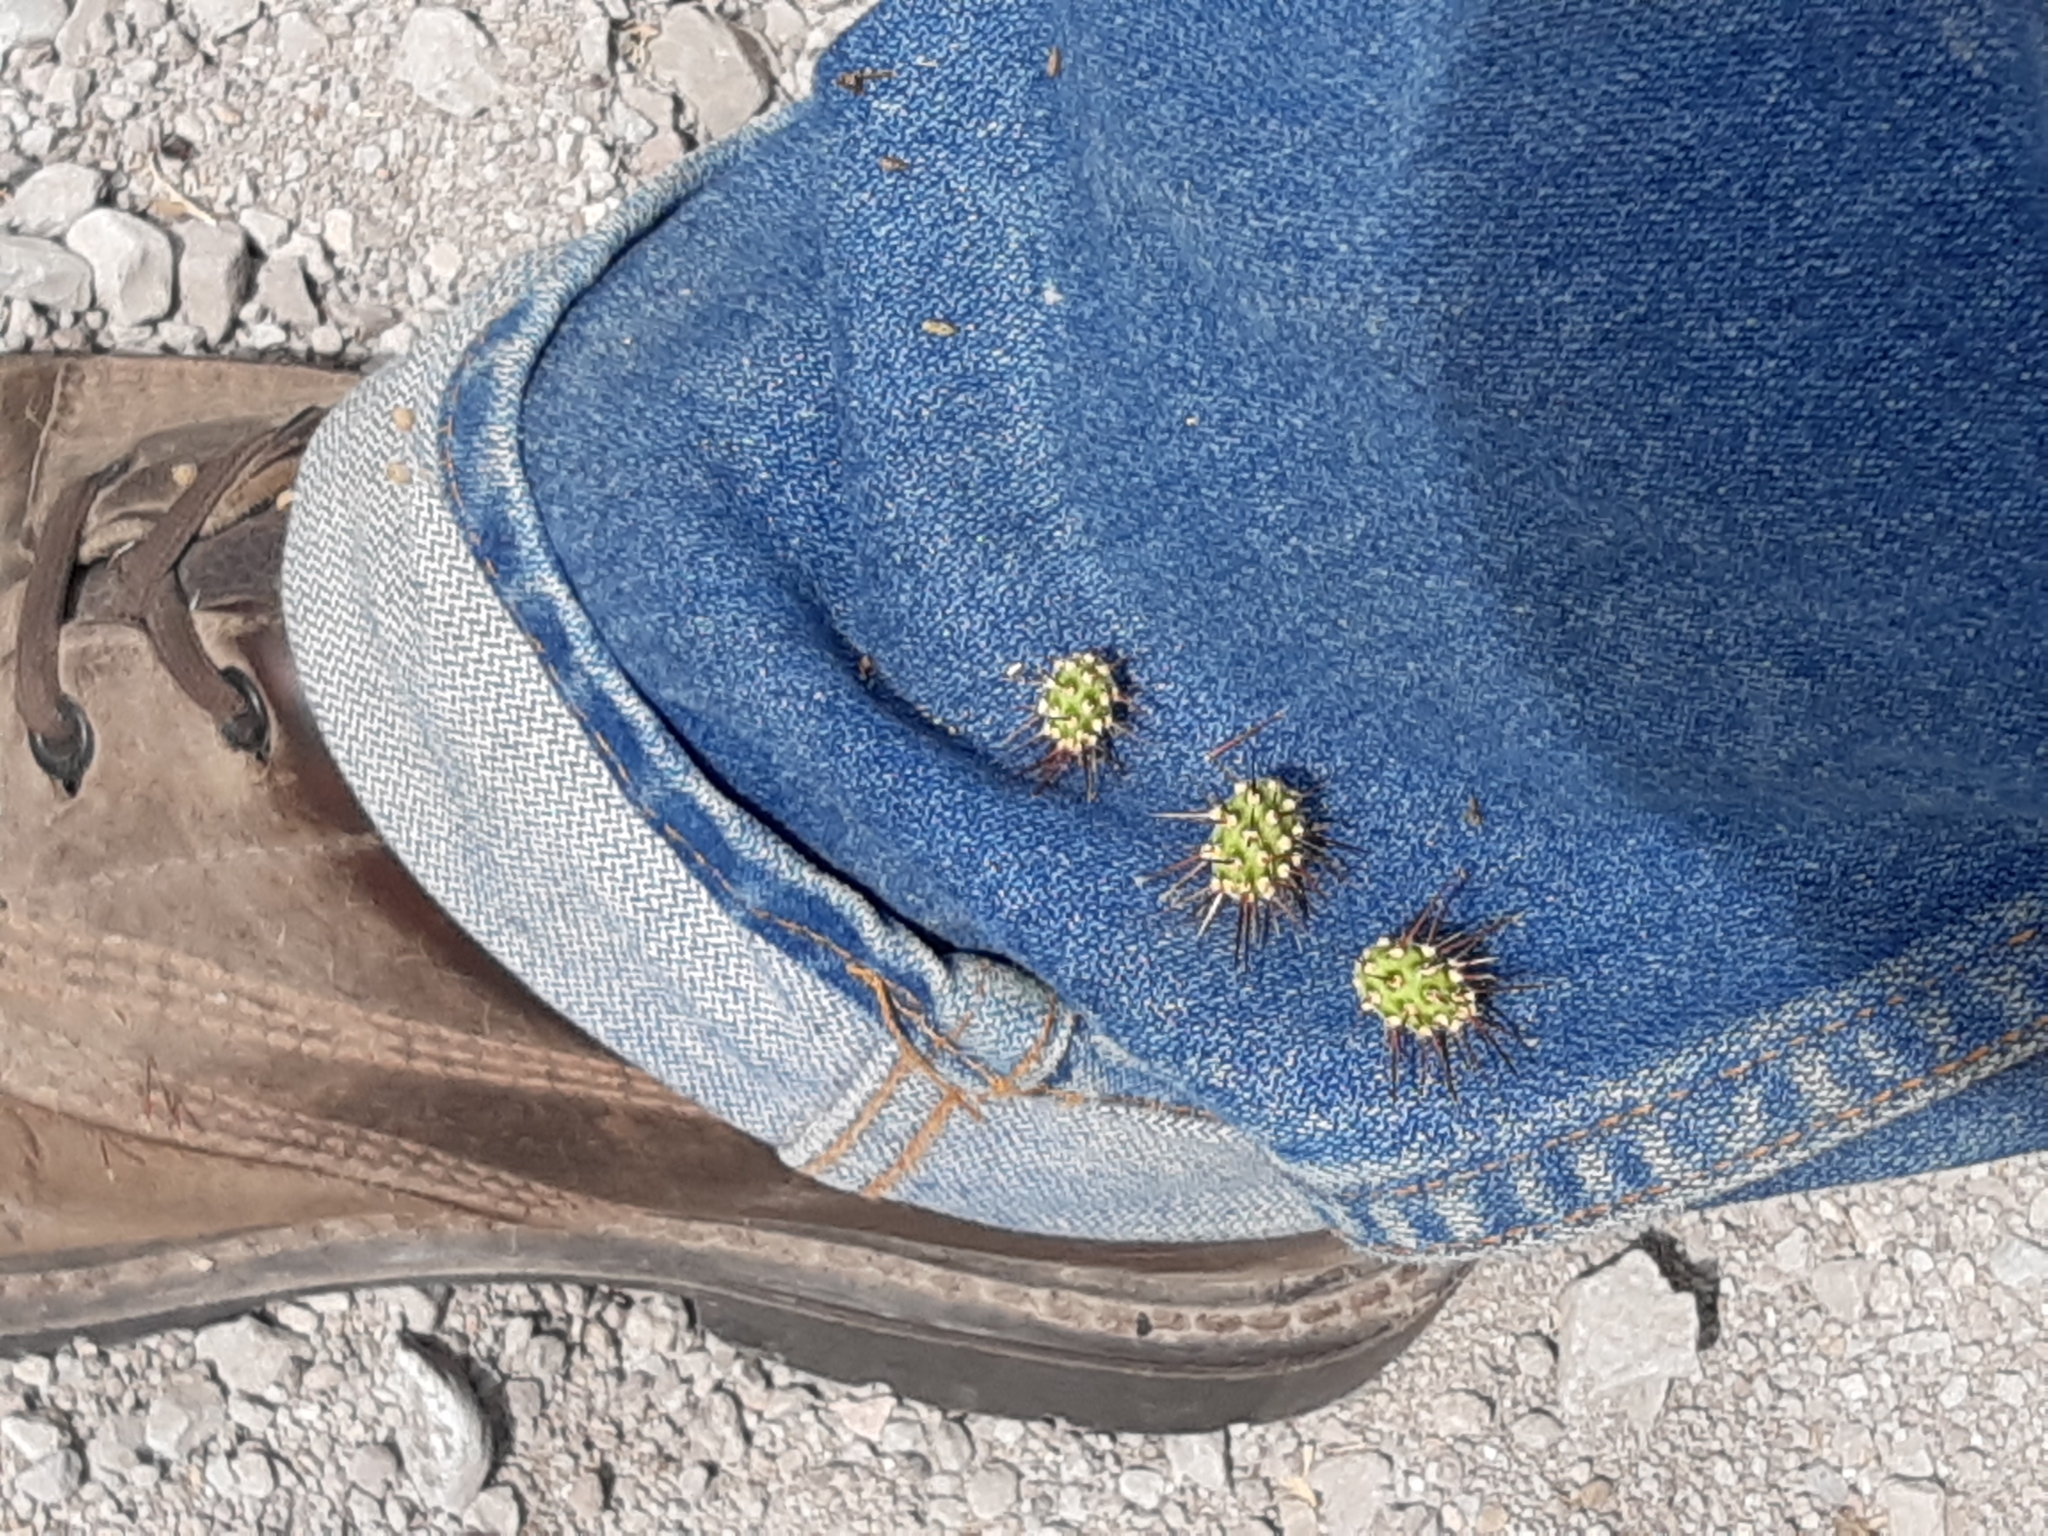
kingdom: Plantae
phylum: Tracheophyta
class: Magnoliopsida
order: Caryophyllales
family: Cactaceae
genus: Opuntia
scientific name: Opuntia pubescens
